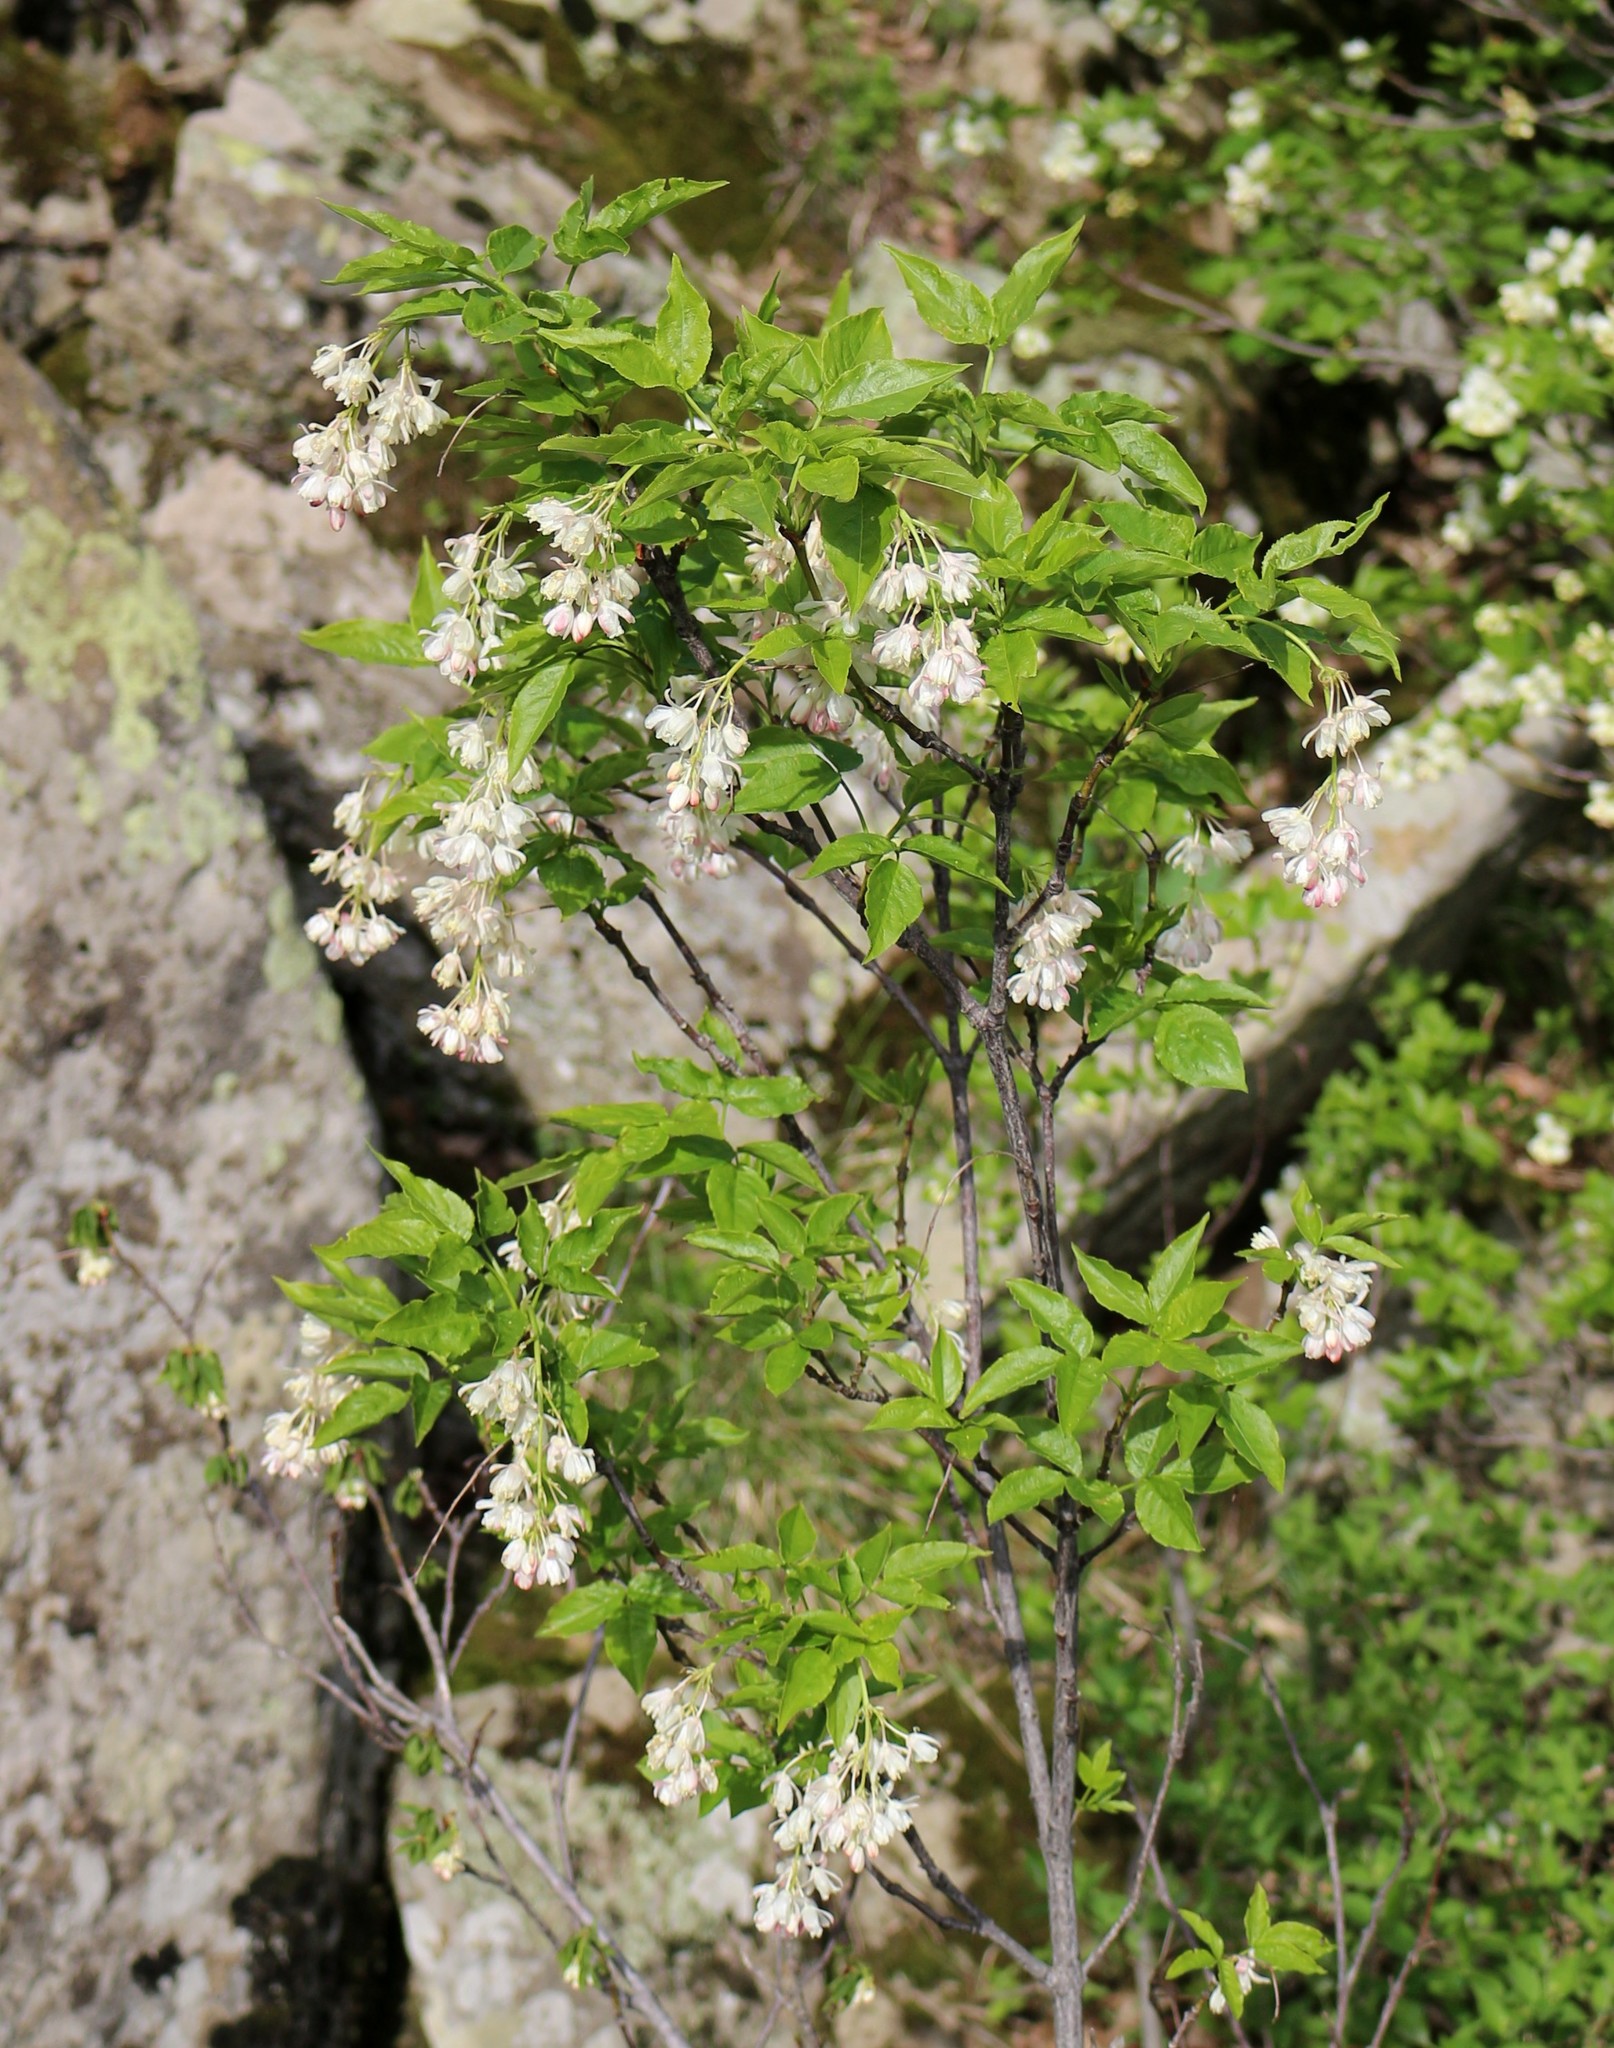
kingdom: Plantae
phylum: Tracheophyta
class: Magnoliopsida
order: Crossosomatales
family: Staphyleaceae
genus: Staphylea
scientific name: Staphylea colchica
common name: Caucasian bladdernut
